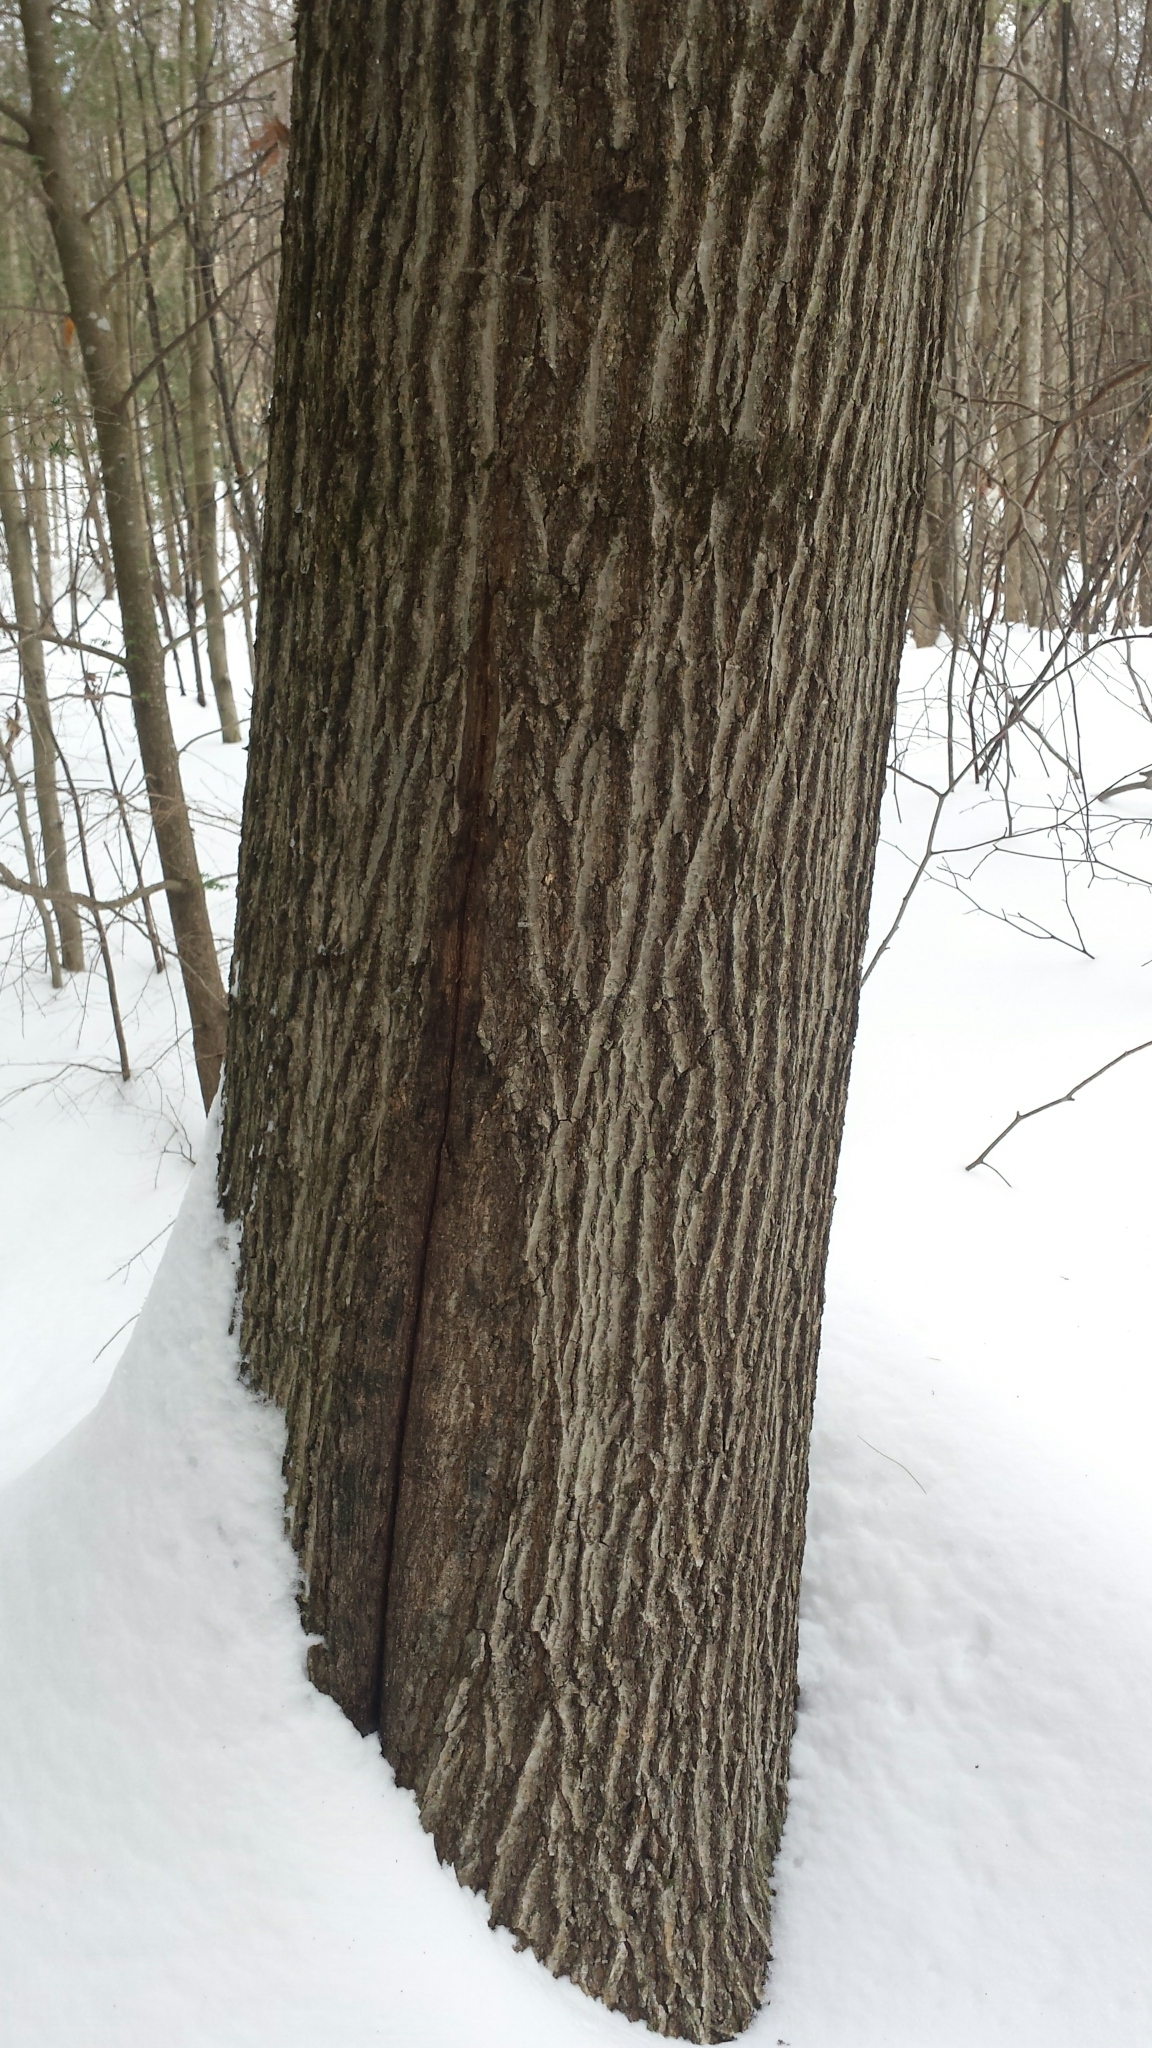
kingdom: Plantae
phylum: Tracheophyta
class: Magnoliopsida
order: Fagales
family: Fagaceae
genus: Quercus
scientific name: Quercus rubra
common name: Red oak
